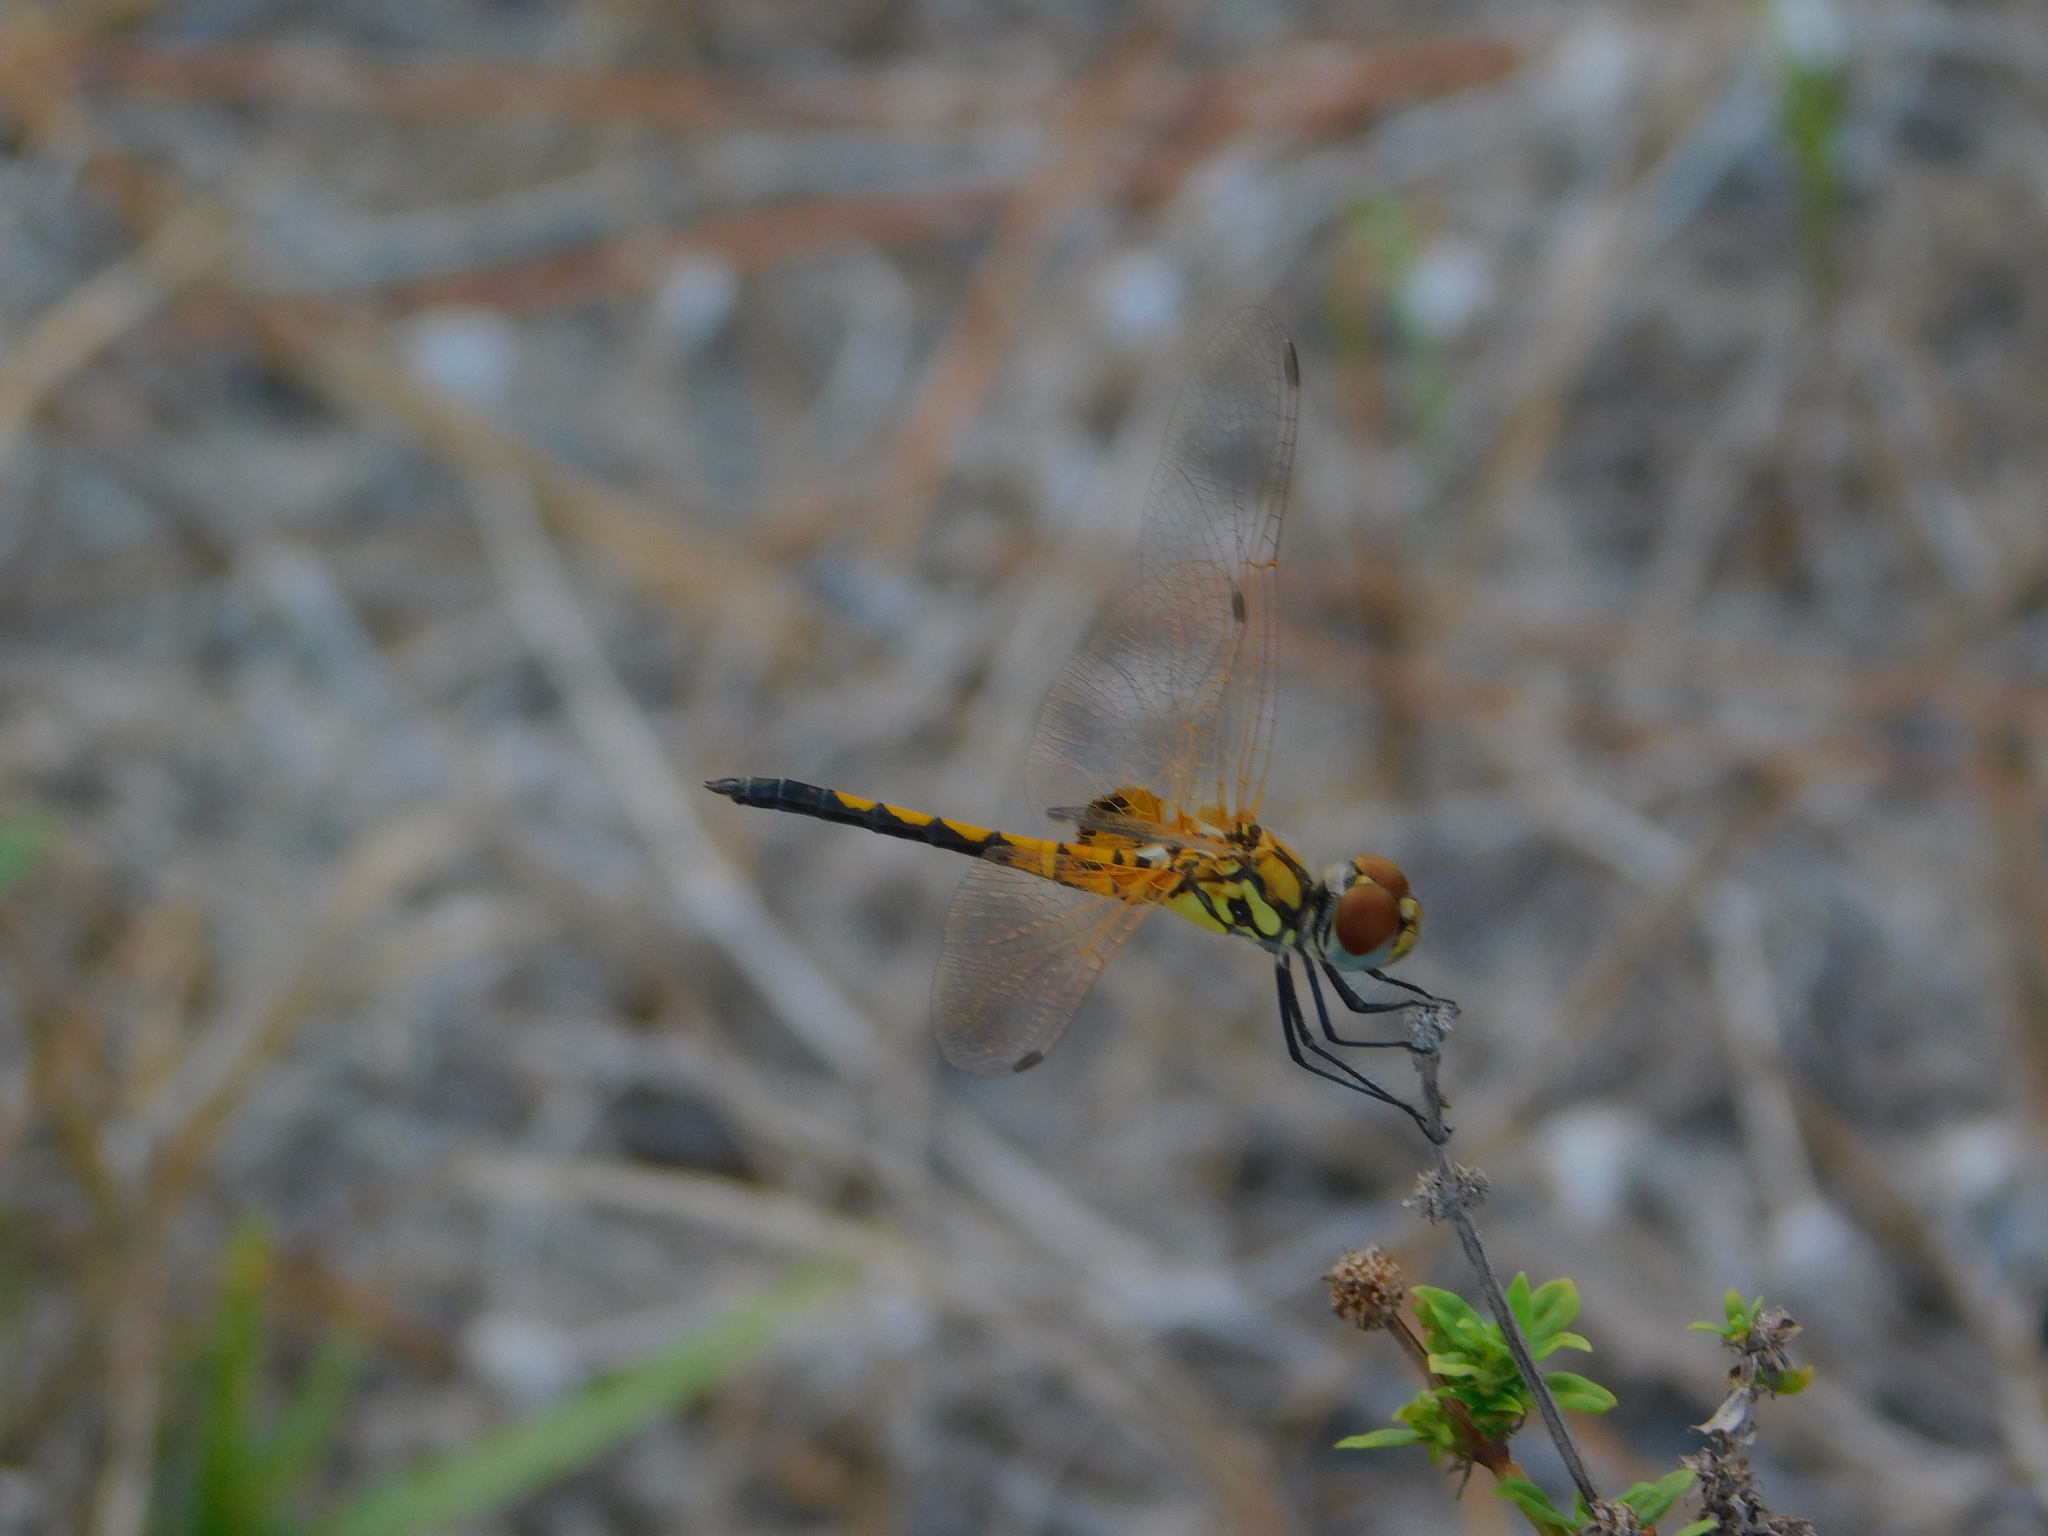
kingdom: Animalia
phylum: Arthropoda
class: Insecta
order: Odonata
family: Libellulidae
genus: Celithemis
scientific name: Celithemis bertha
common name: Red-veined pennant
